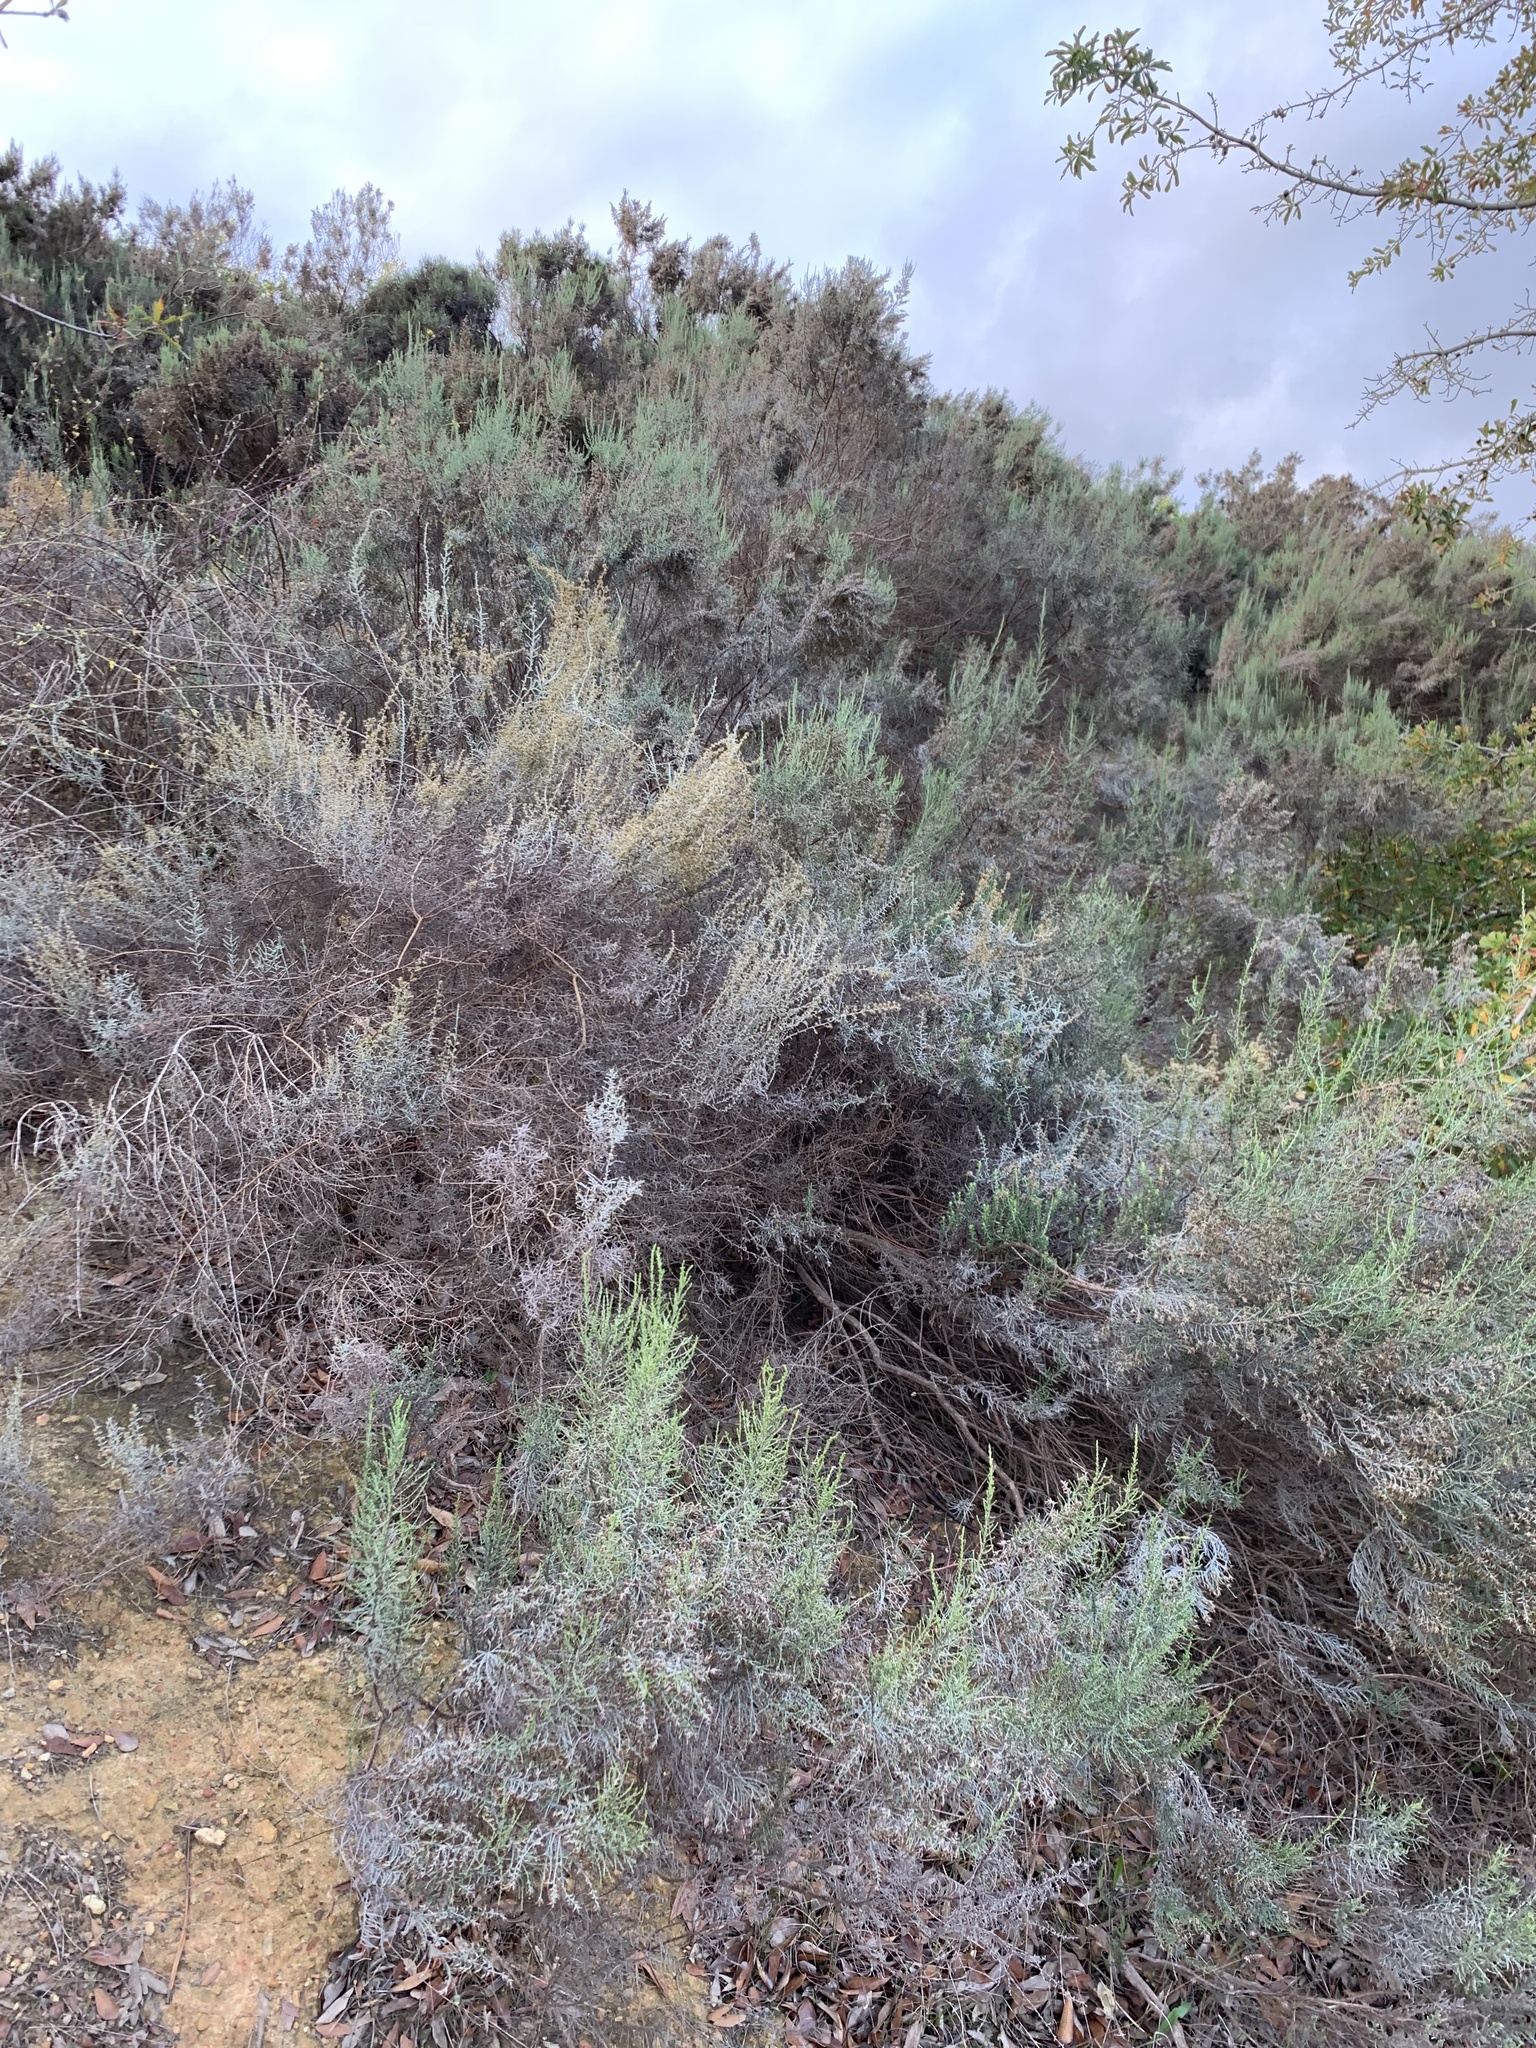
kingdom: Plantae
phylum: Tracheophyta
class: Magnoliopsida
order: Asterales
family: Asteraceae
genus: Dicerothamnus
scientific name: Dicerothamnus rhinocerotis
